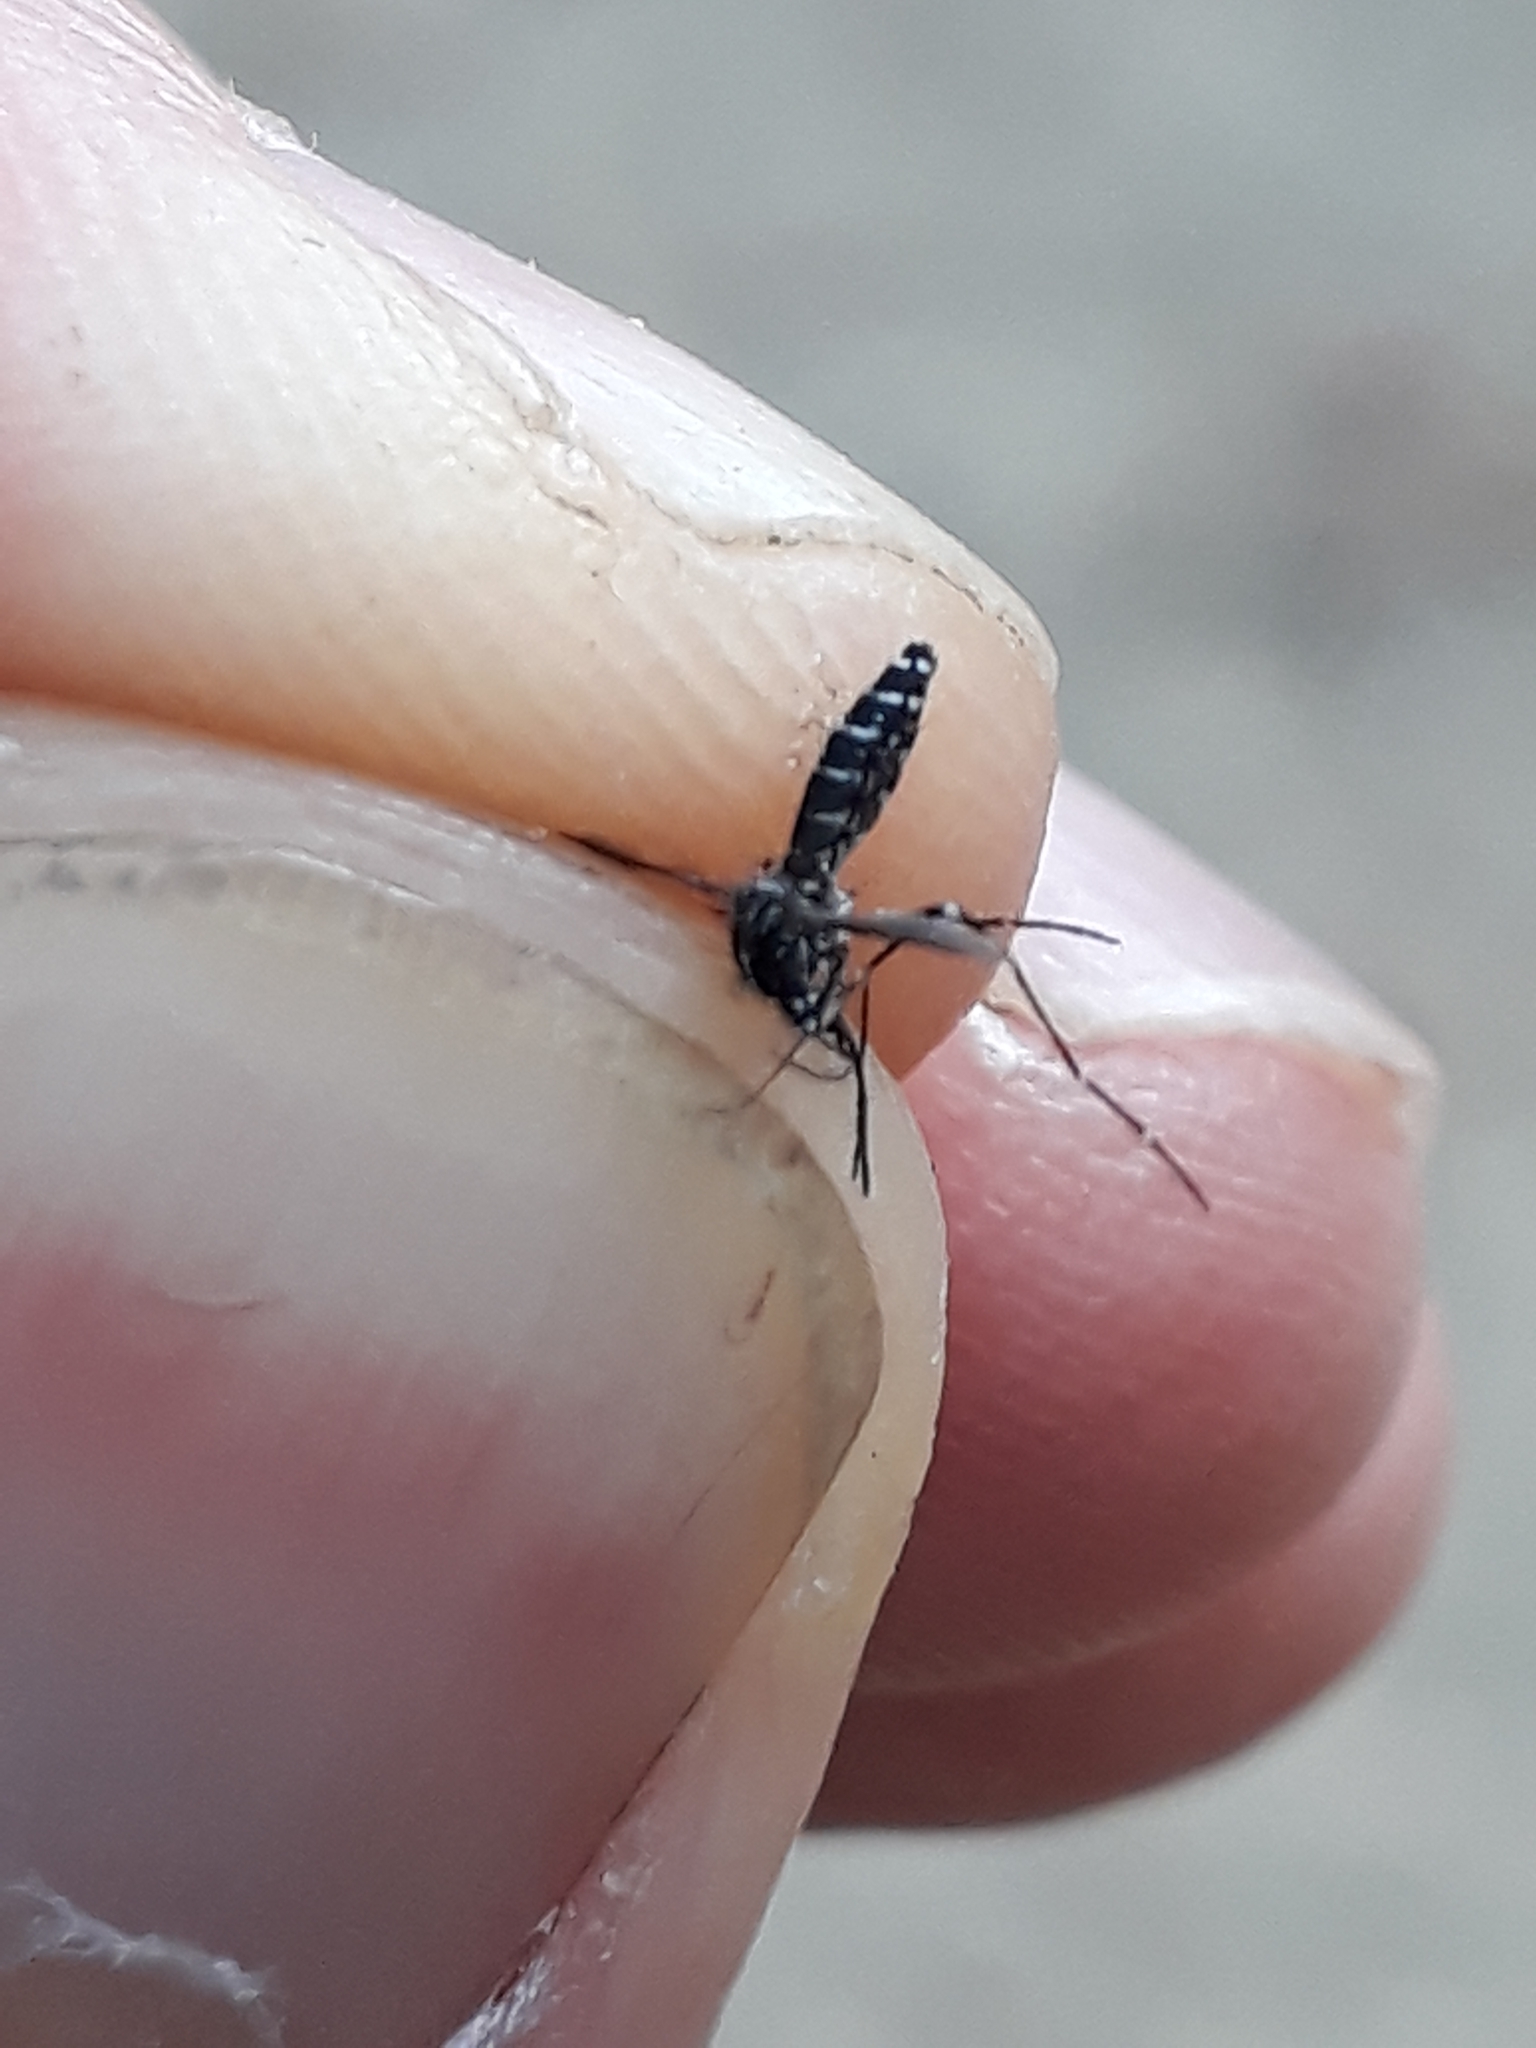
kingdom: Animalia
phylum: Arthropoda
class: Insecta
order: Diptera
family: Culicidae
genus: Aedes
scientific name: Aedes albopictus
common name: Tiger mosquito
